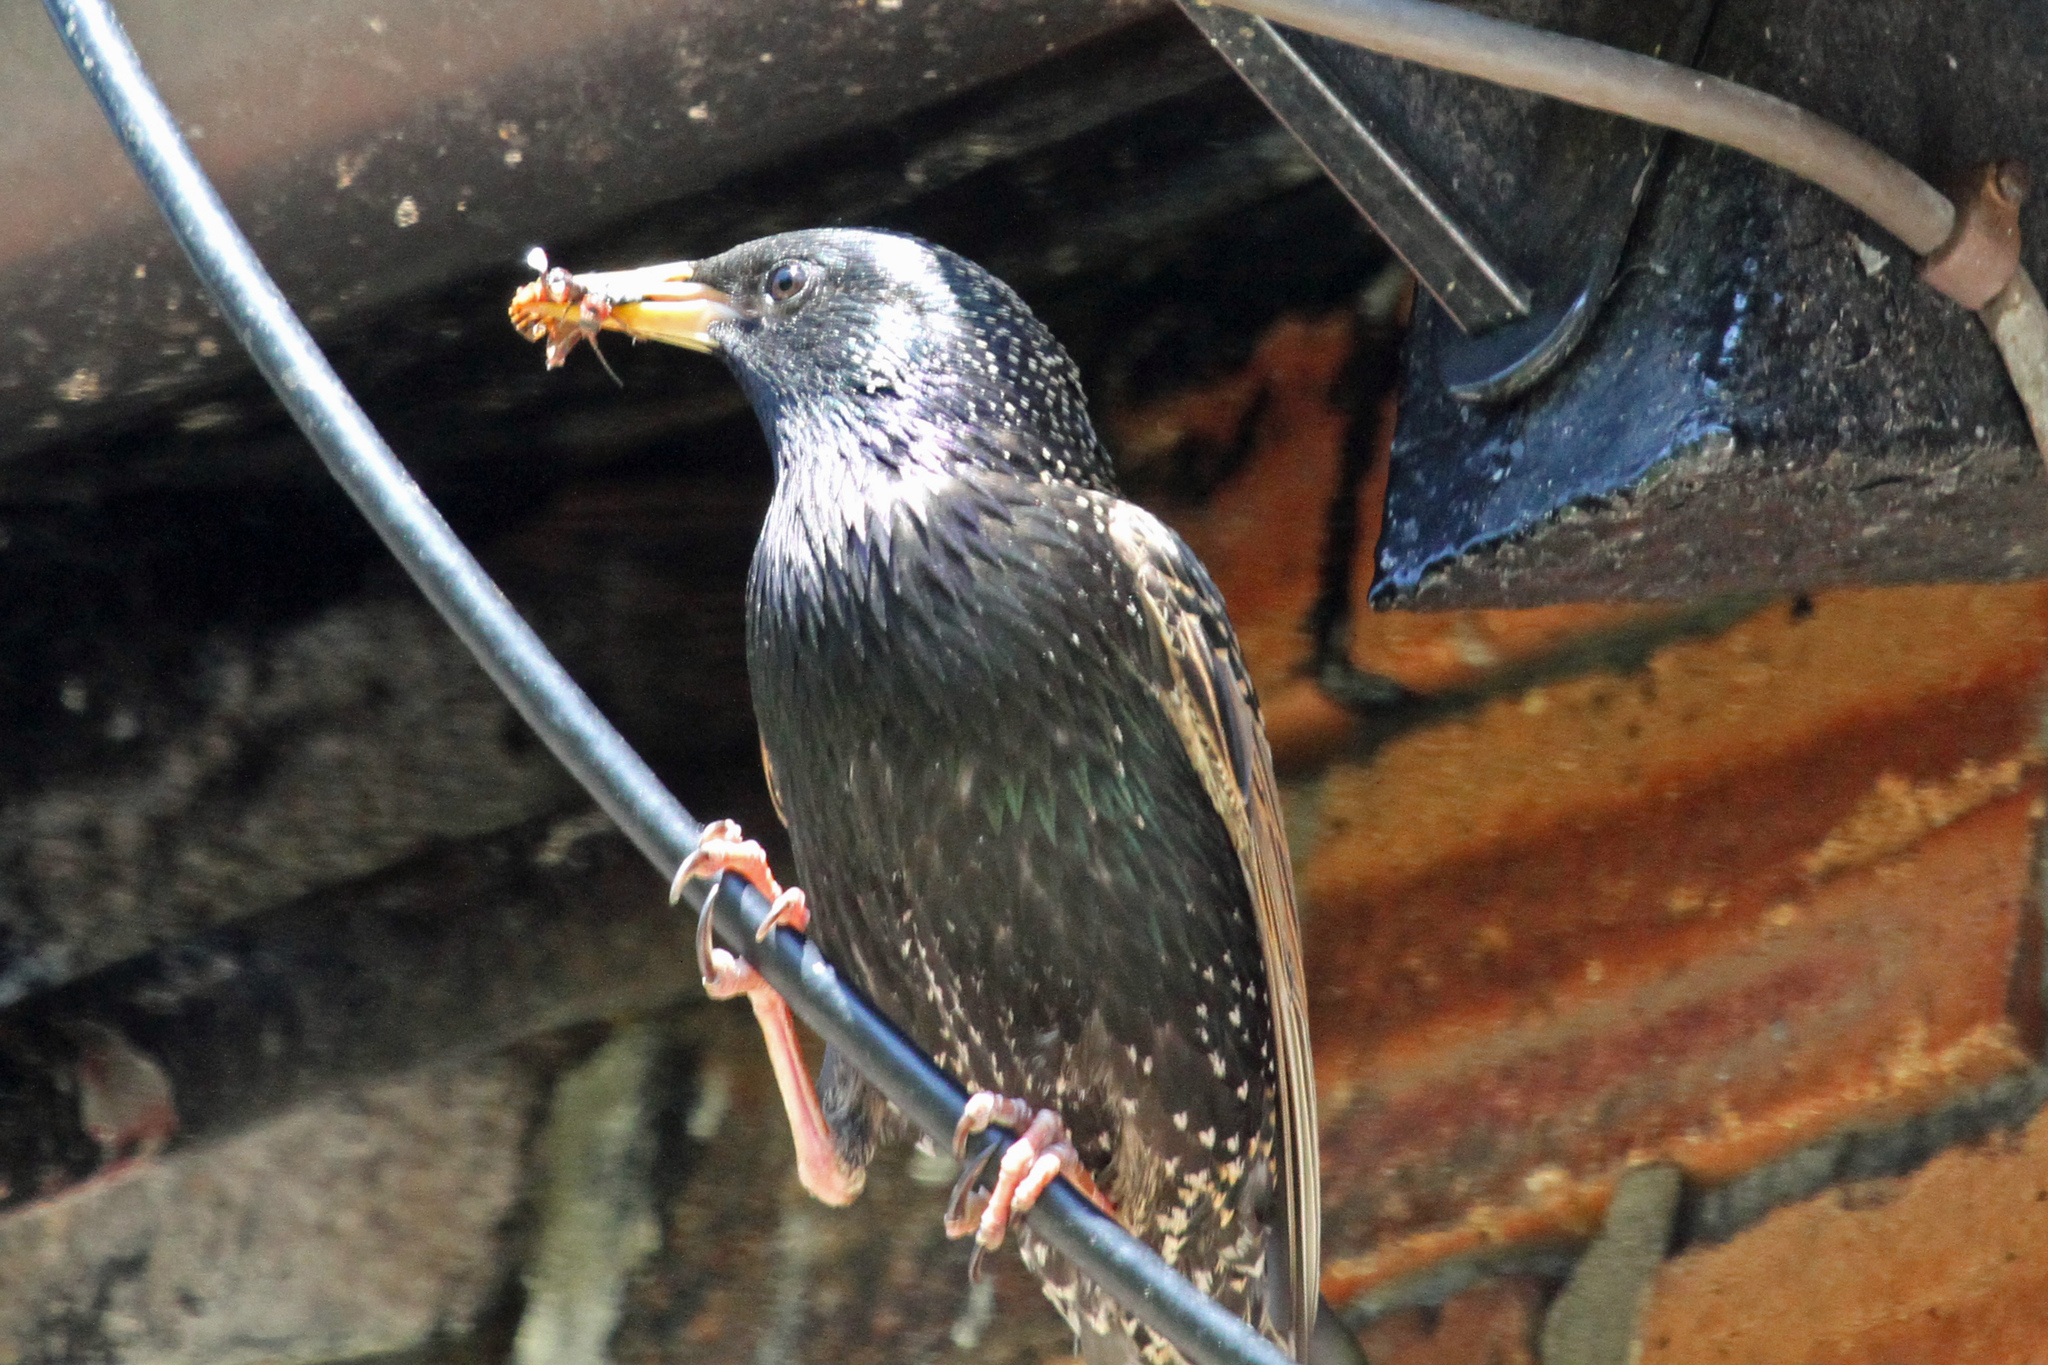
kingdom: Animalia
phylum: Chordata
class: Aves
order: Passeriformes
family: Sturnidae
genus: Sturnus
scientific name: Sturnus vulgaris
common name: Common starling
